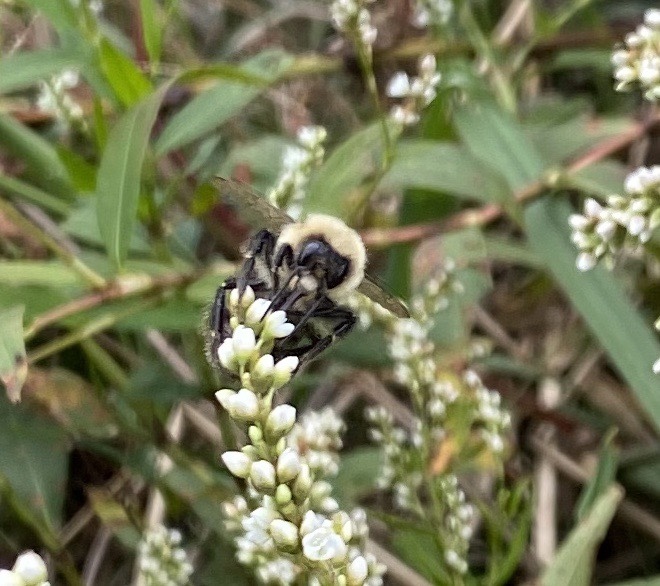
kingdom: Animalia
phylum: Arthropoda
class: Insecta
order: Hymenoptera
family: Apidae
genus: Bombus
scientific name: Bombus impatiens
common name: Common eastern bumble bee
